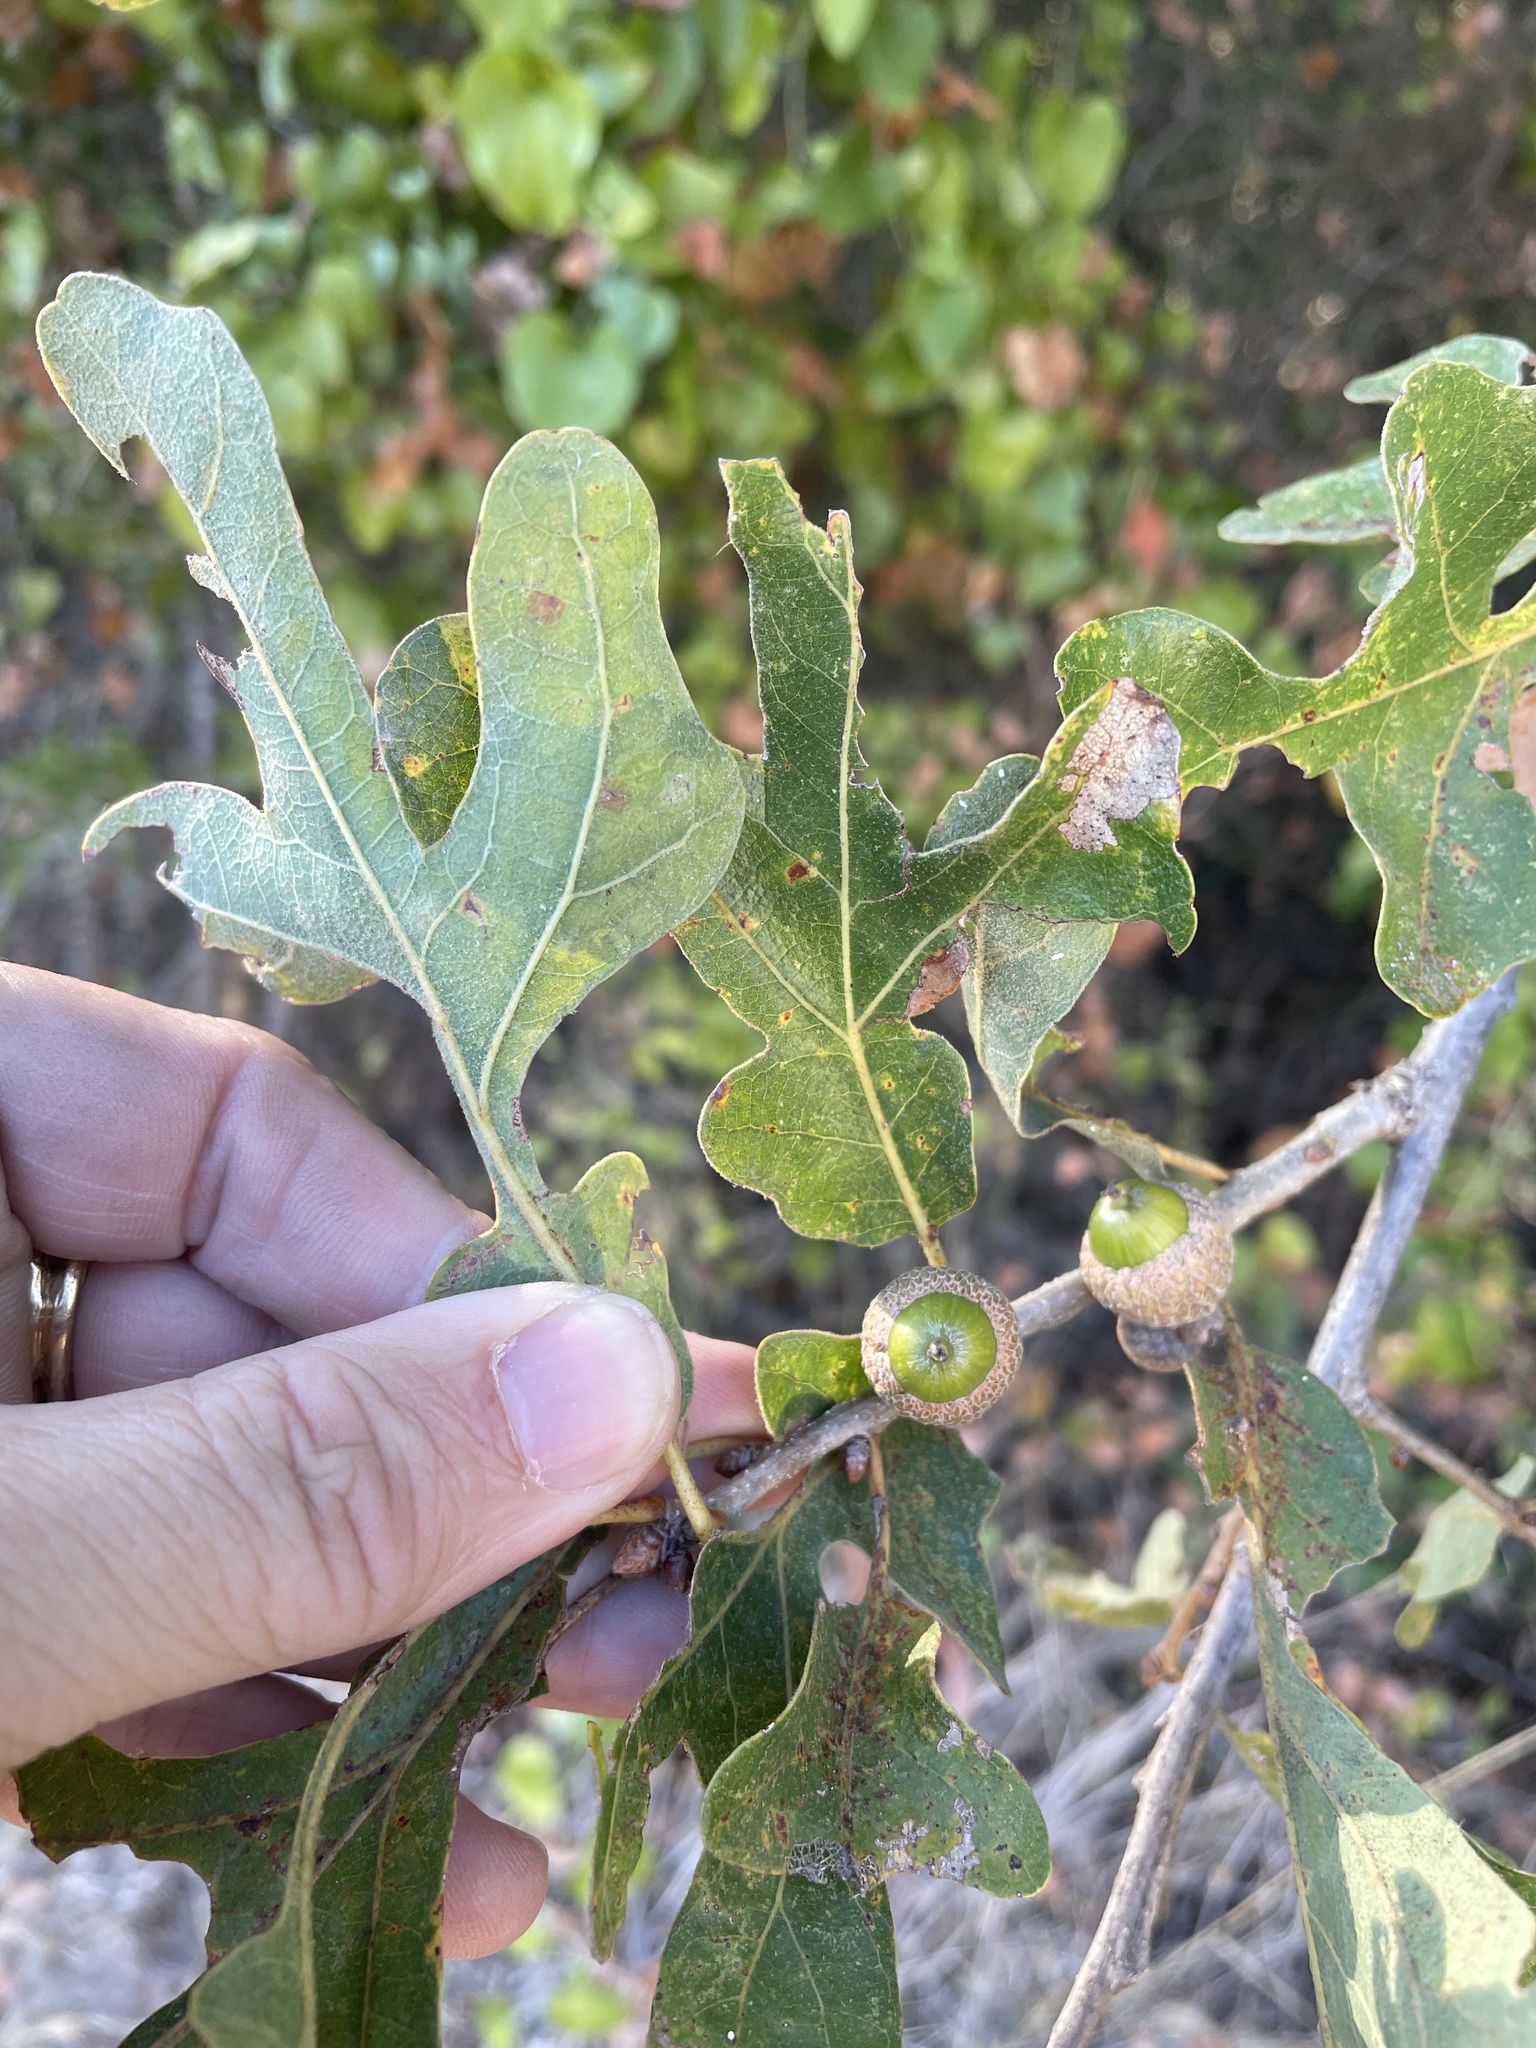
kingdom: Plantae
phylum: Tracheophyta
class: Magnoliopsida
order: Fagales
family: Fagaceae
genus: Quercus
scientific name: Quercus stellata
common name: Post oak
